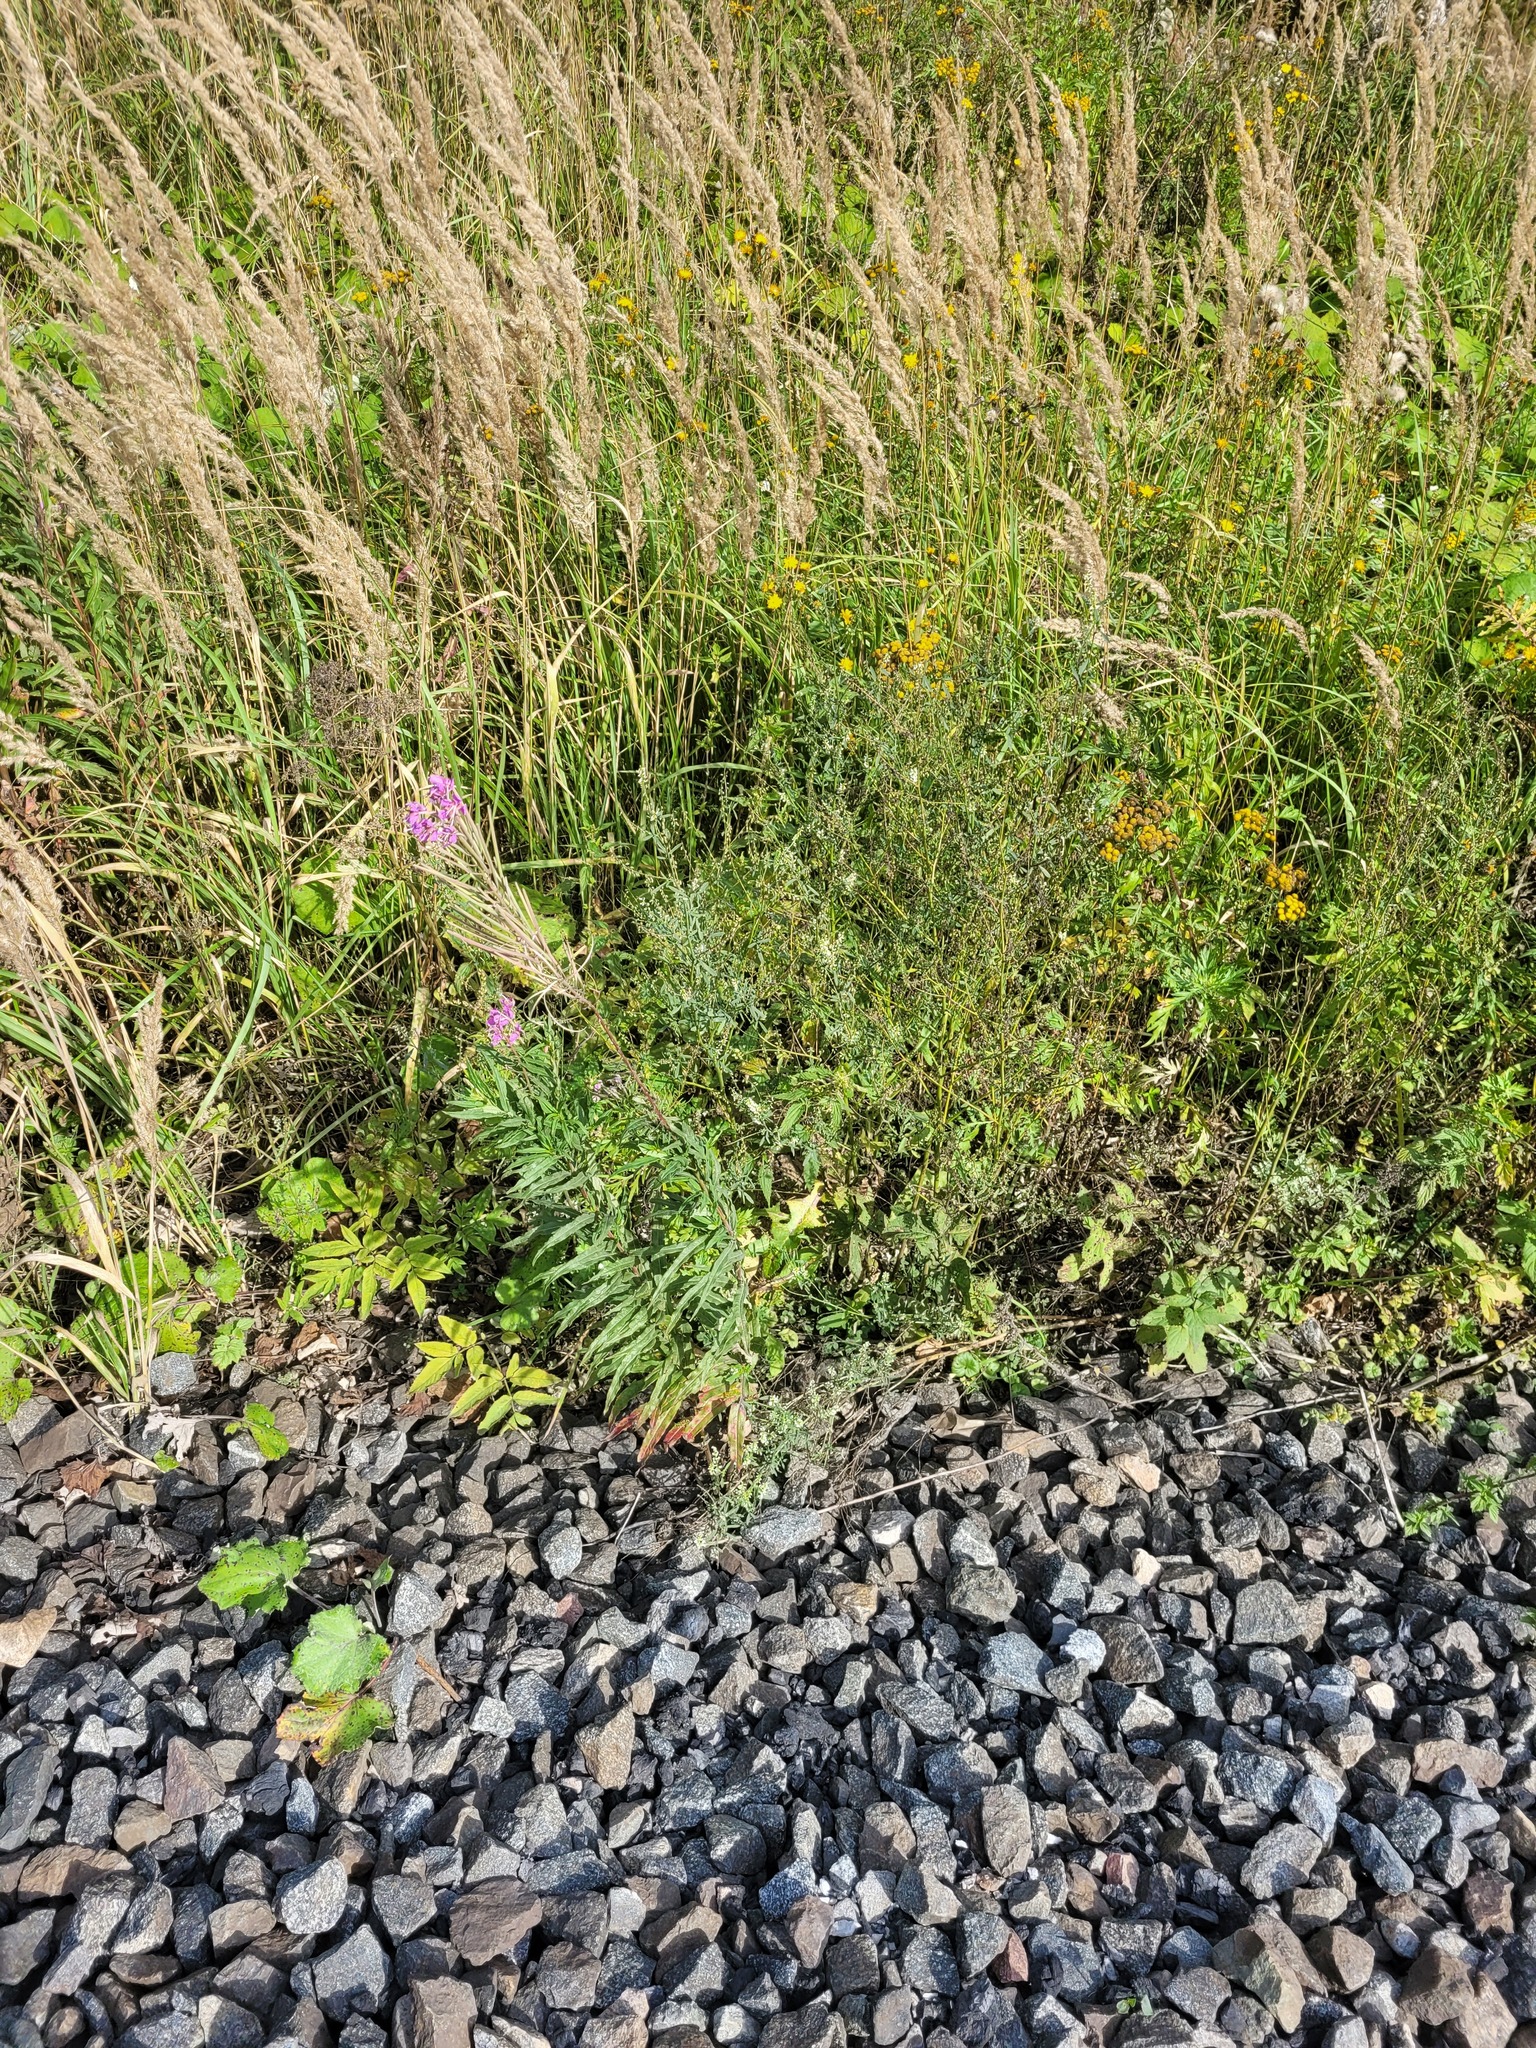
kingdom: Plantae
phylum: Tracheophyta
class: Magnoliopsida
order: Myrtales
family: Onagraceae
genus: Chamaenerion
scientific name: Chamaenerion angustifolium
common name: Fireweed
